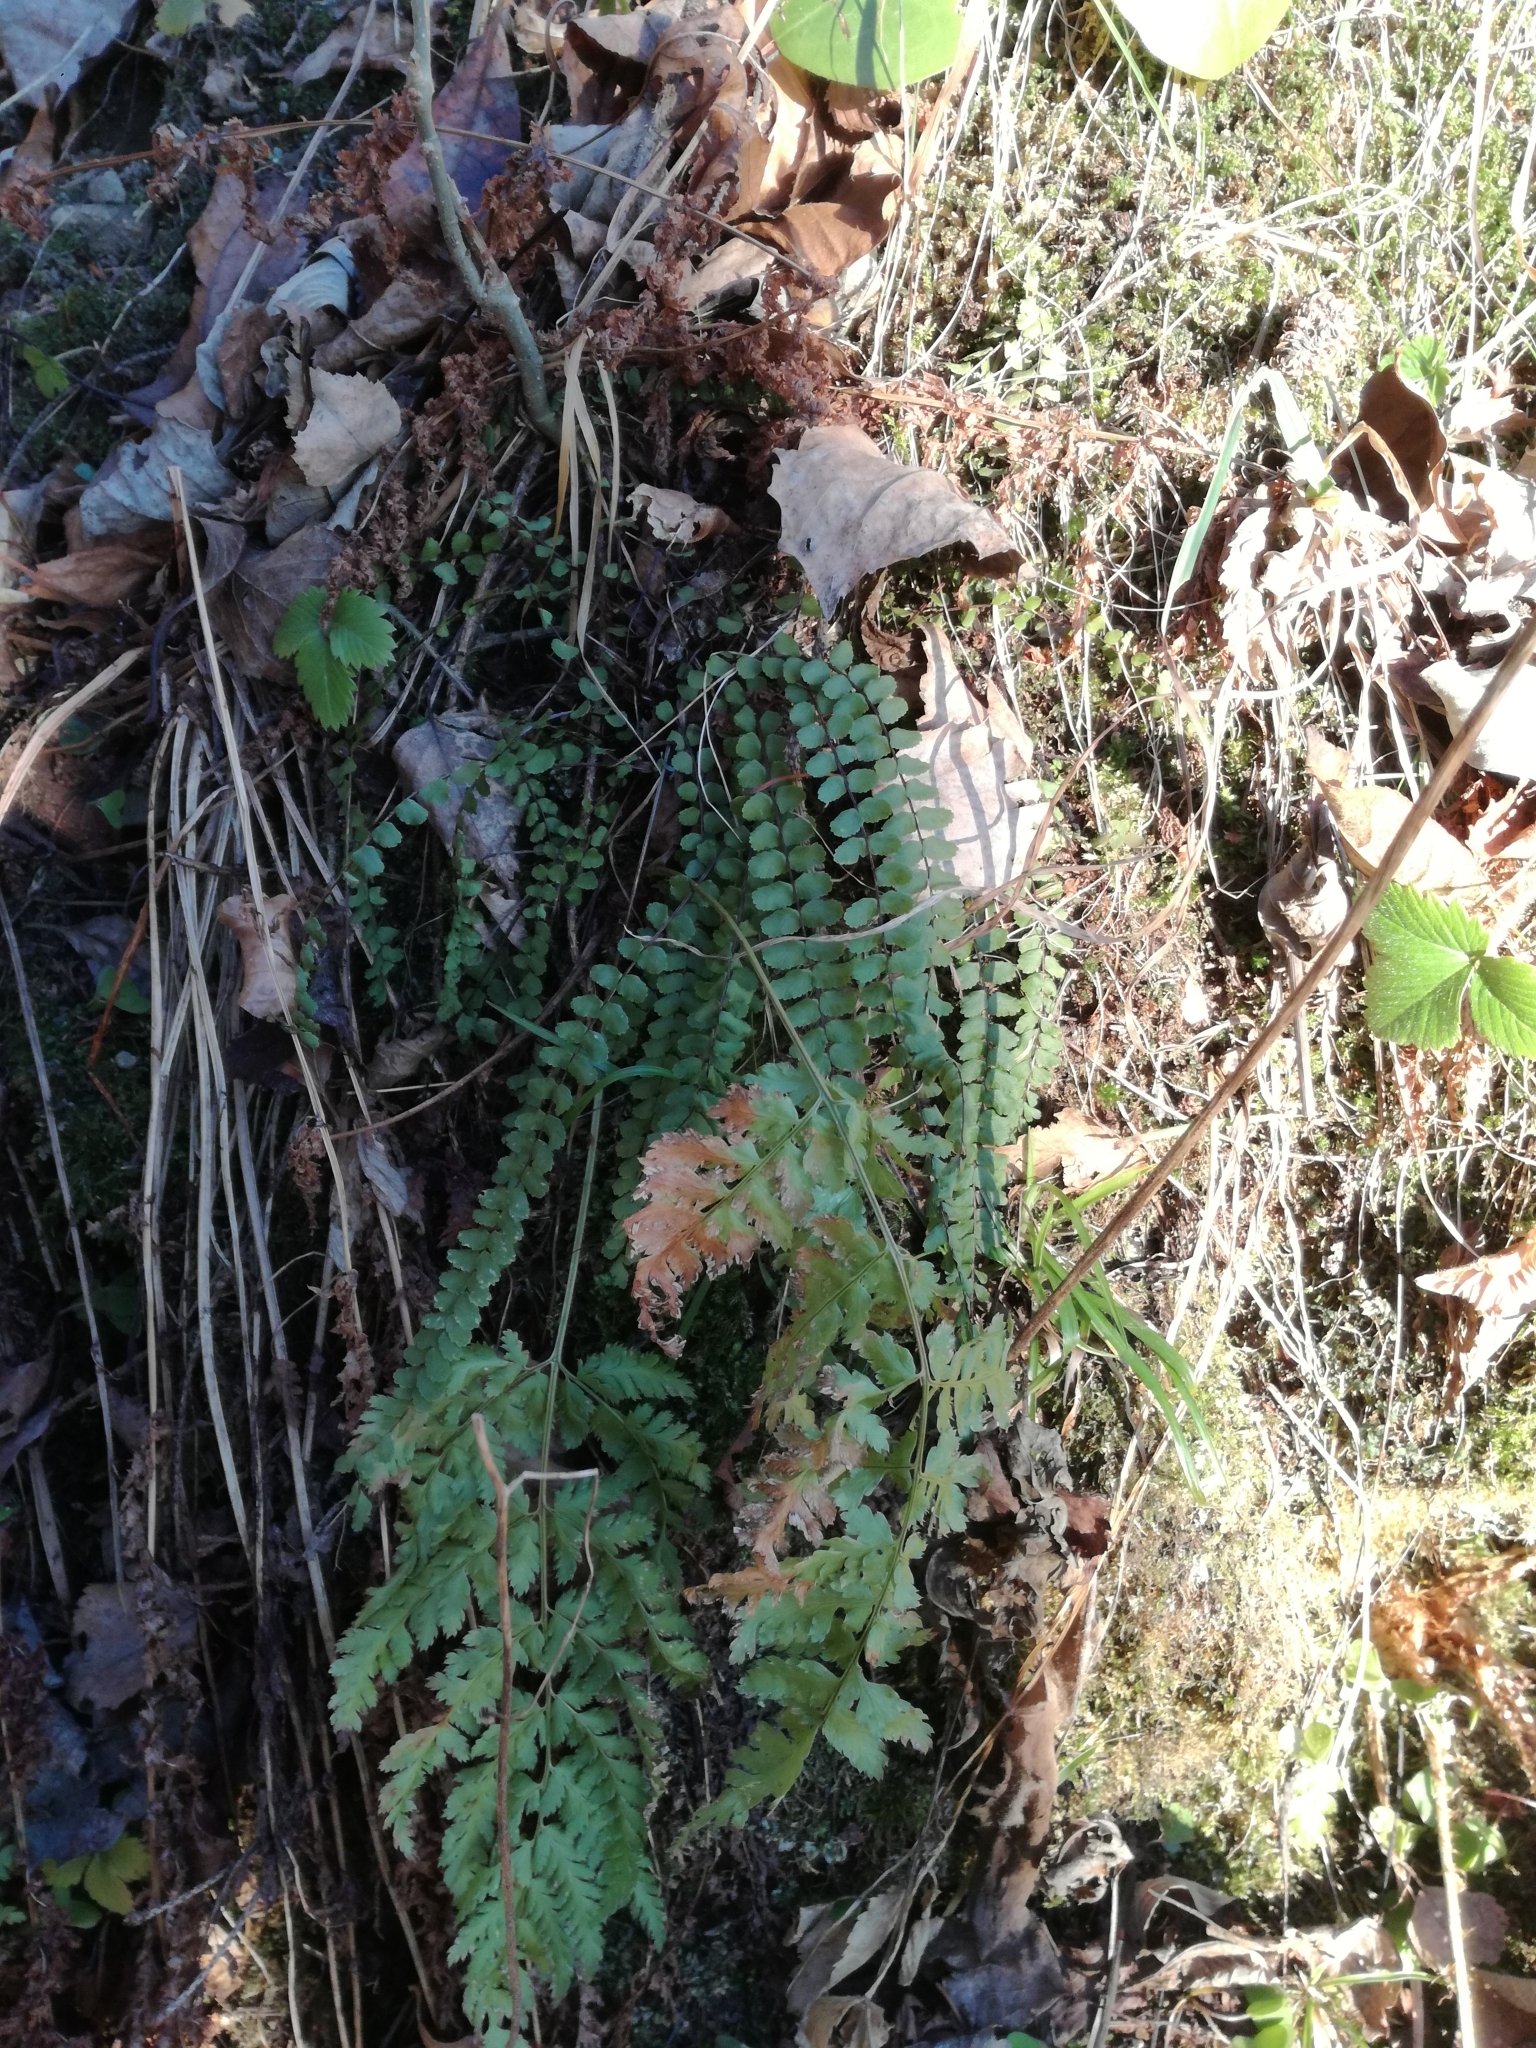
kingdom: Plantae
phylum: Tracheophyta
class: Polypodiopsida
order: Polypodiales
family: Aspleniaceae
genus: Asplenium
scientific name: Asplenium trichomanes
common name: Maidenhair spleenwort
